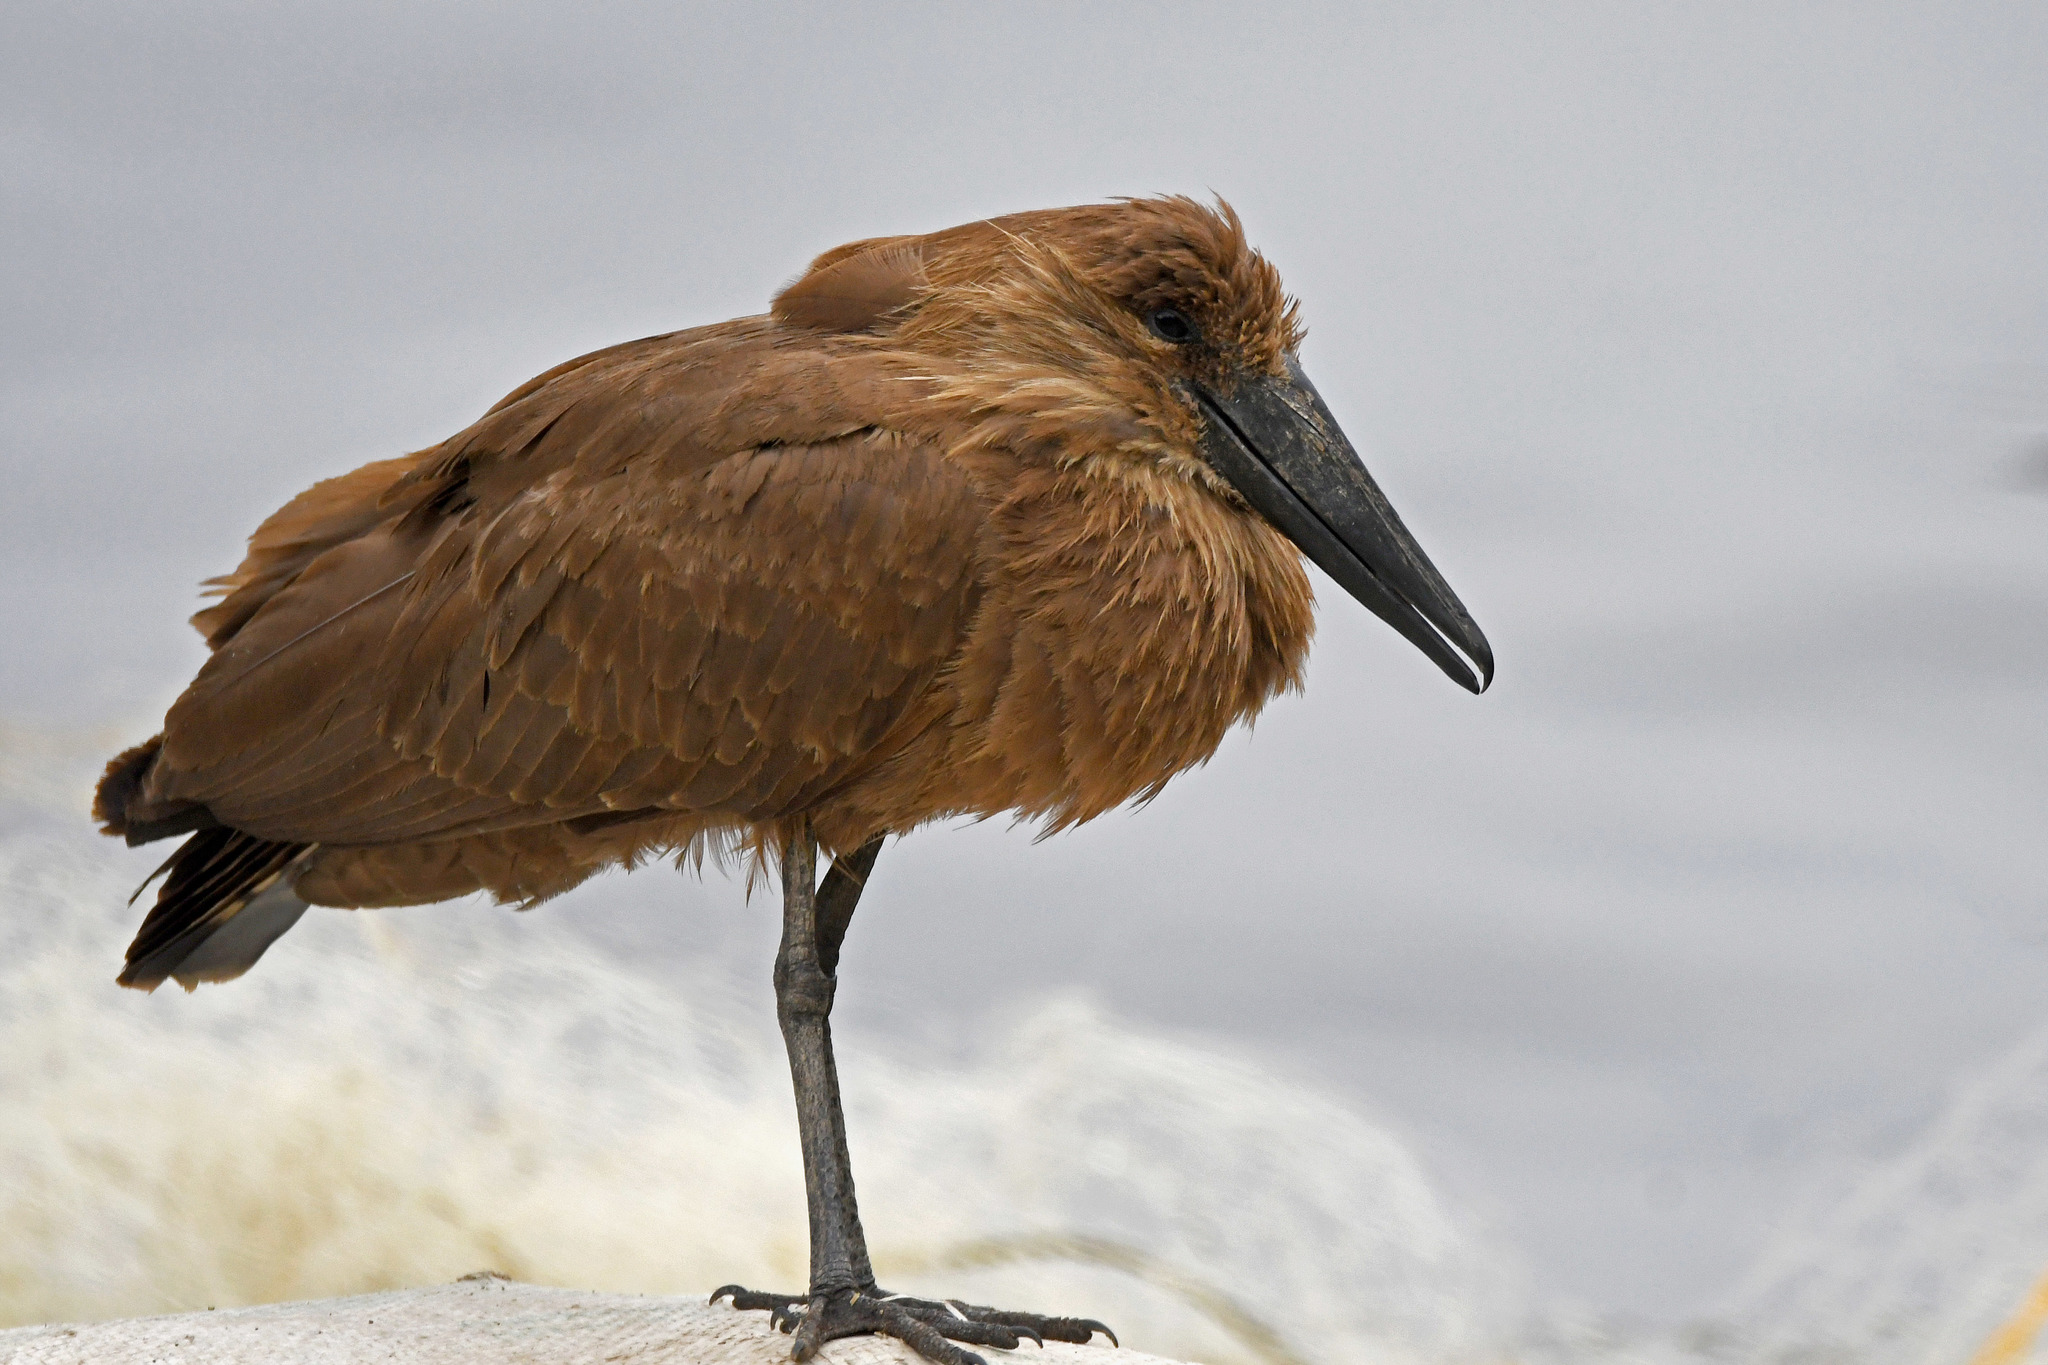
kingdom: Animalia
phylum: Chordata
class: Aves
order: Pelecaniformes
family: Scopidae
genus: Scopus
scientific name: Scopus umbretta
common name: Hamerkop
